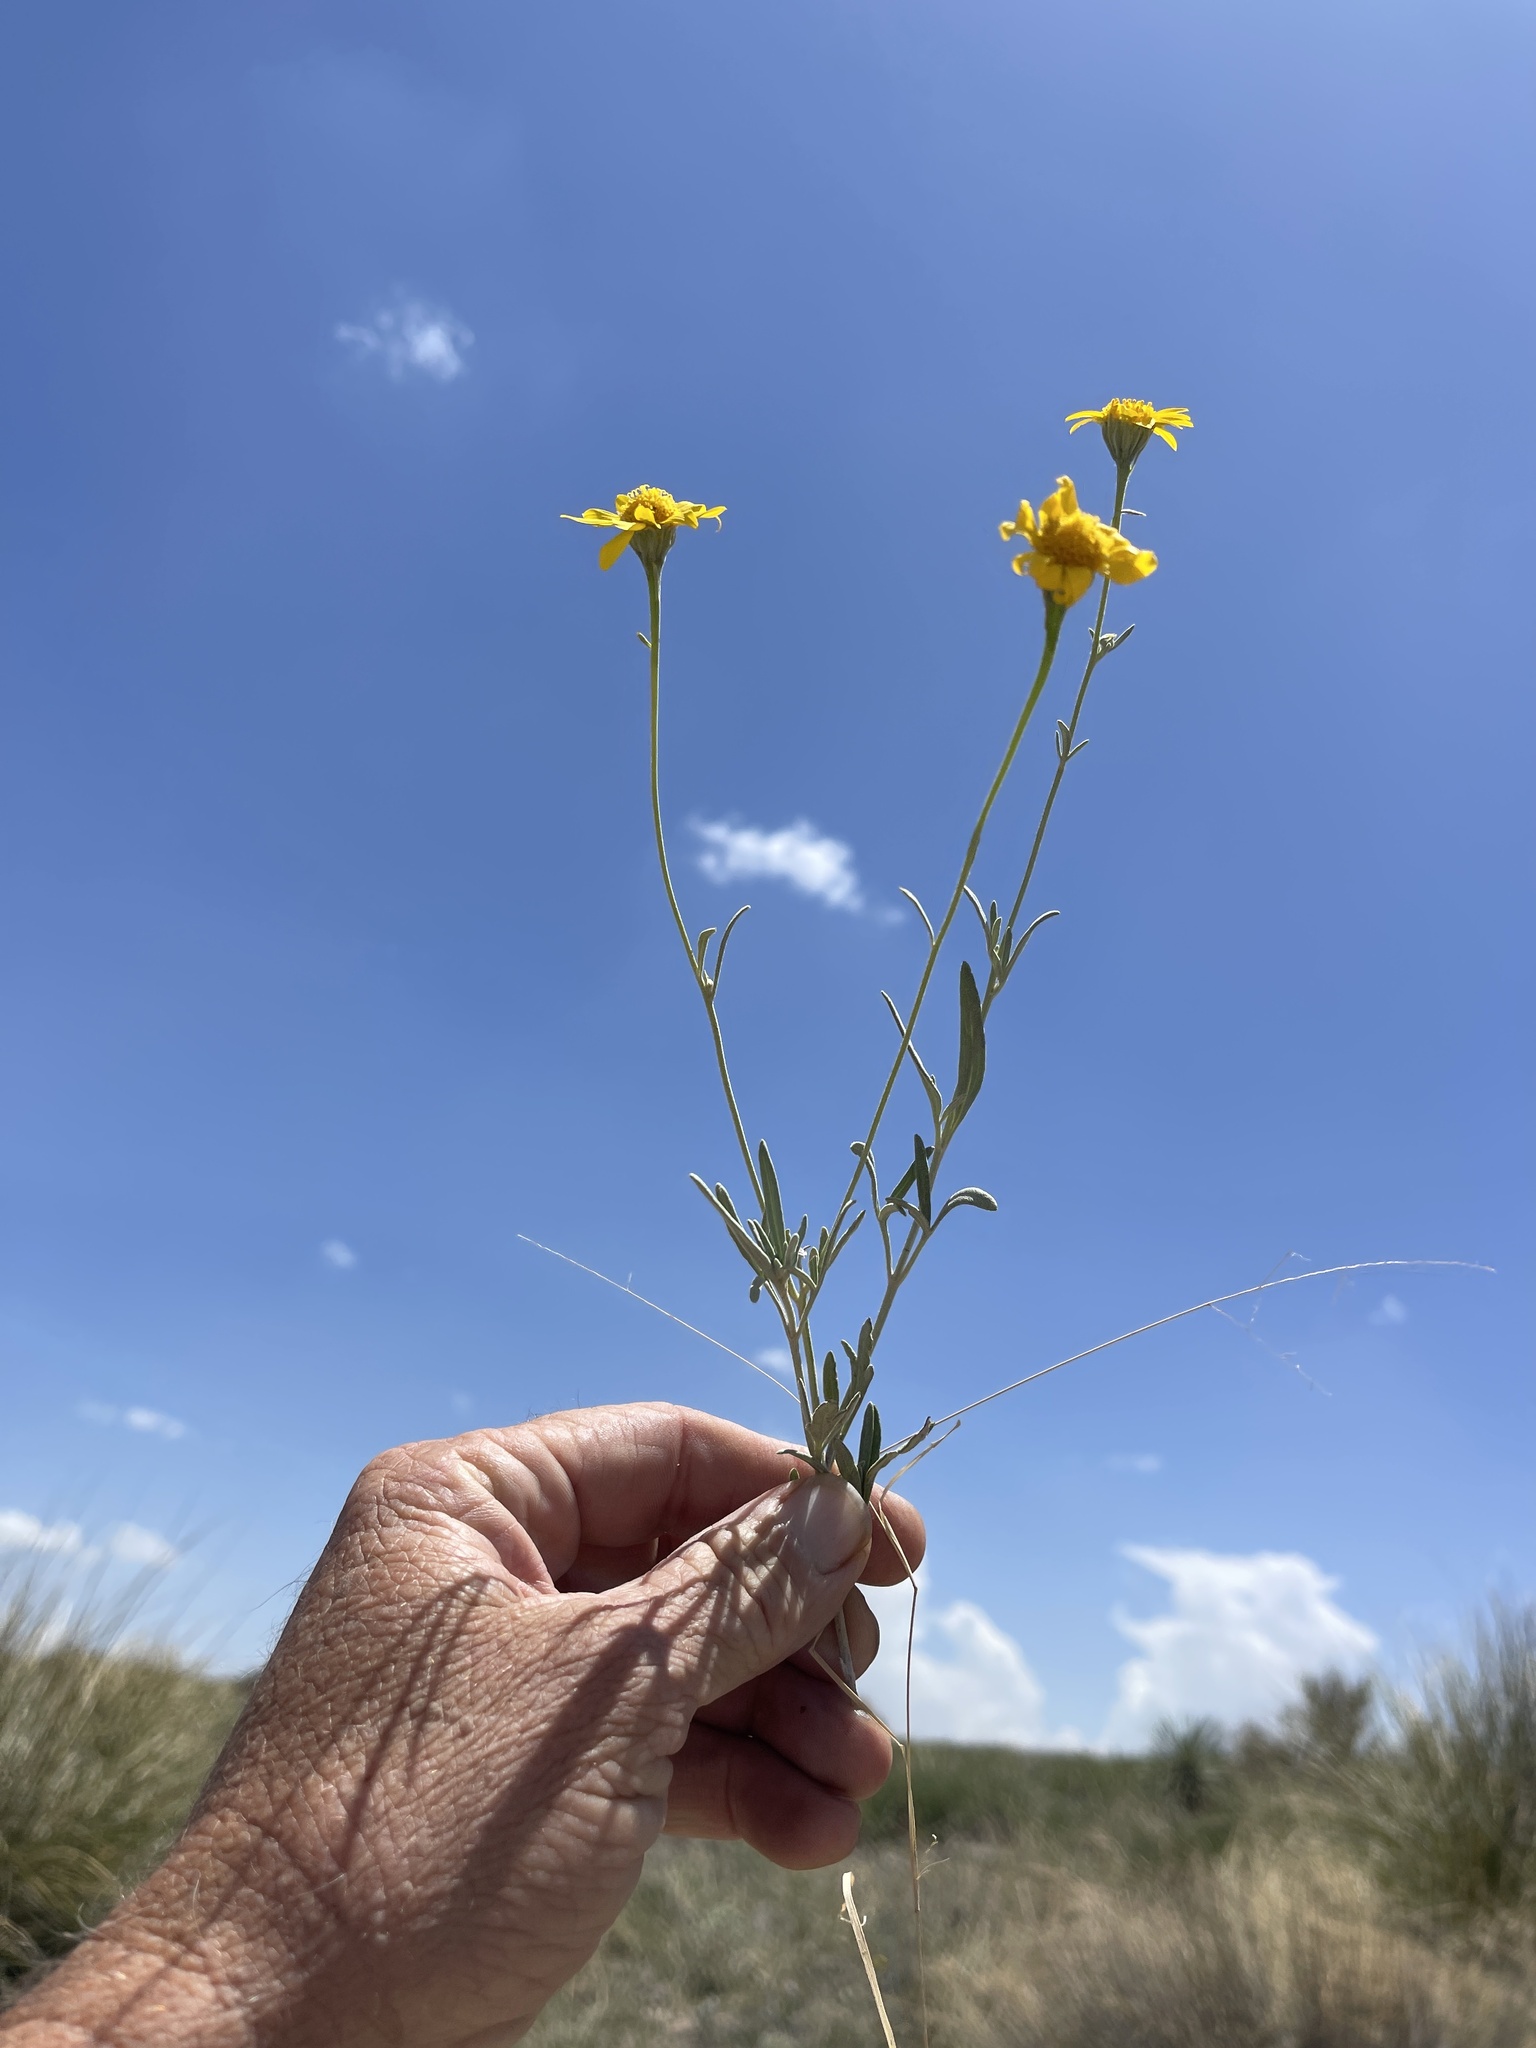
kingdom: Plantae
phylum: Tracheophyta
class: Magnoliopsida
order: Asterales
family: Asteraceae
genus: Picradeniopsis
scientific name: Picradeniopsis absinthifolia
